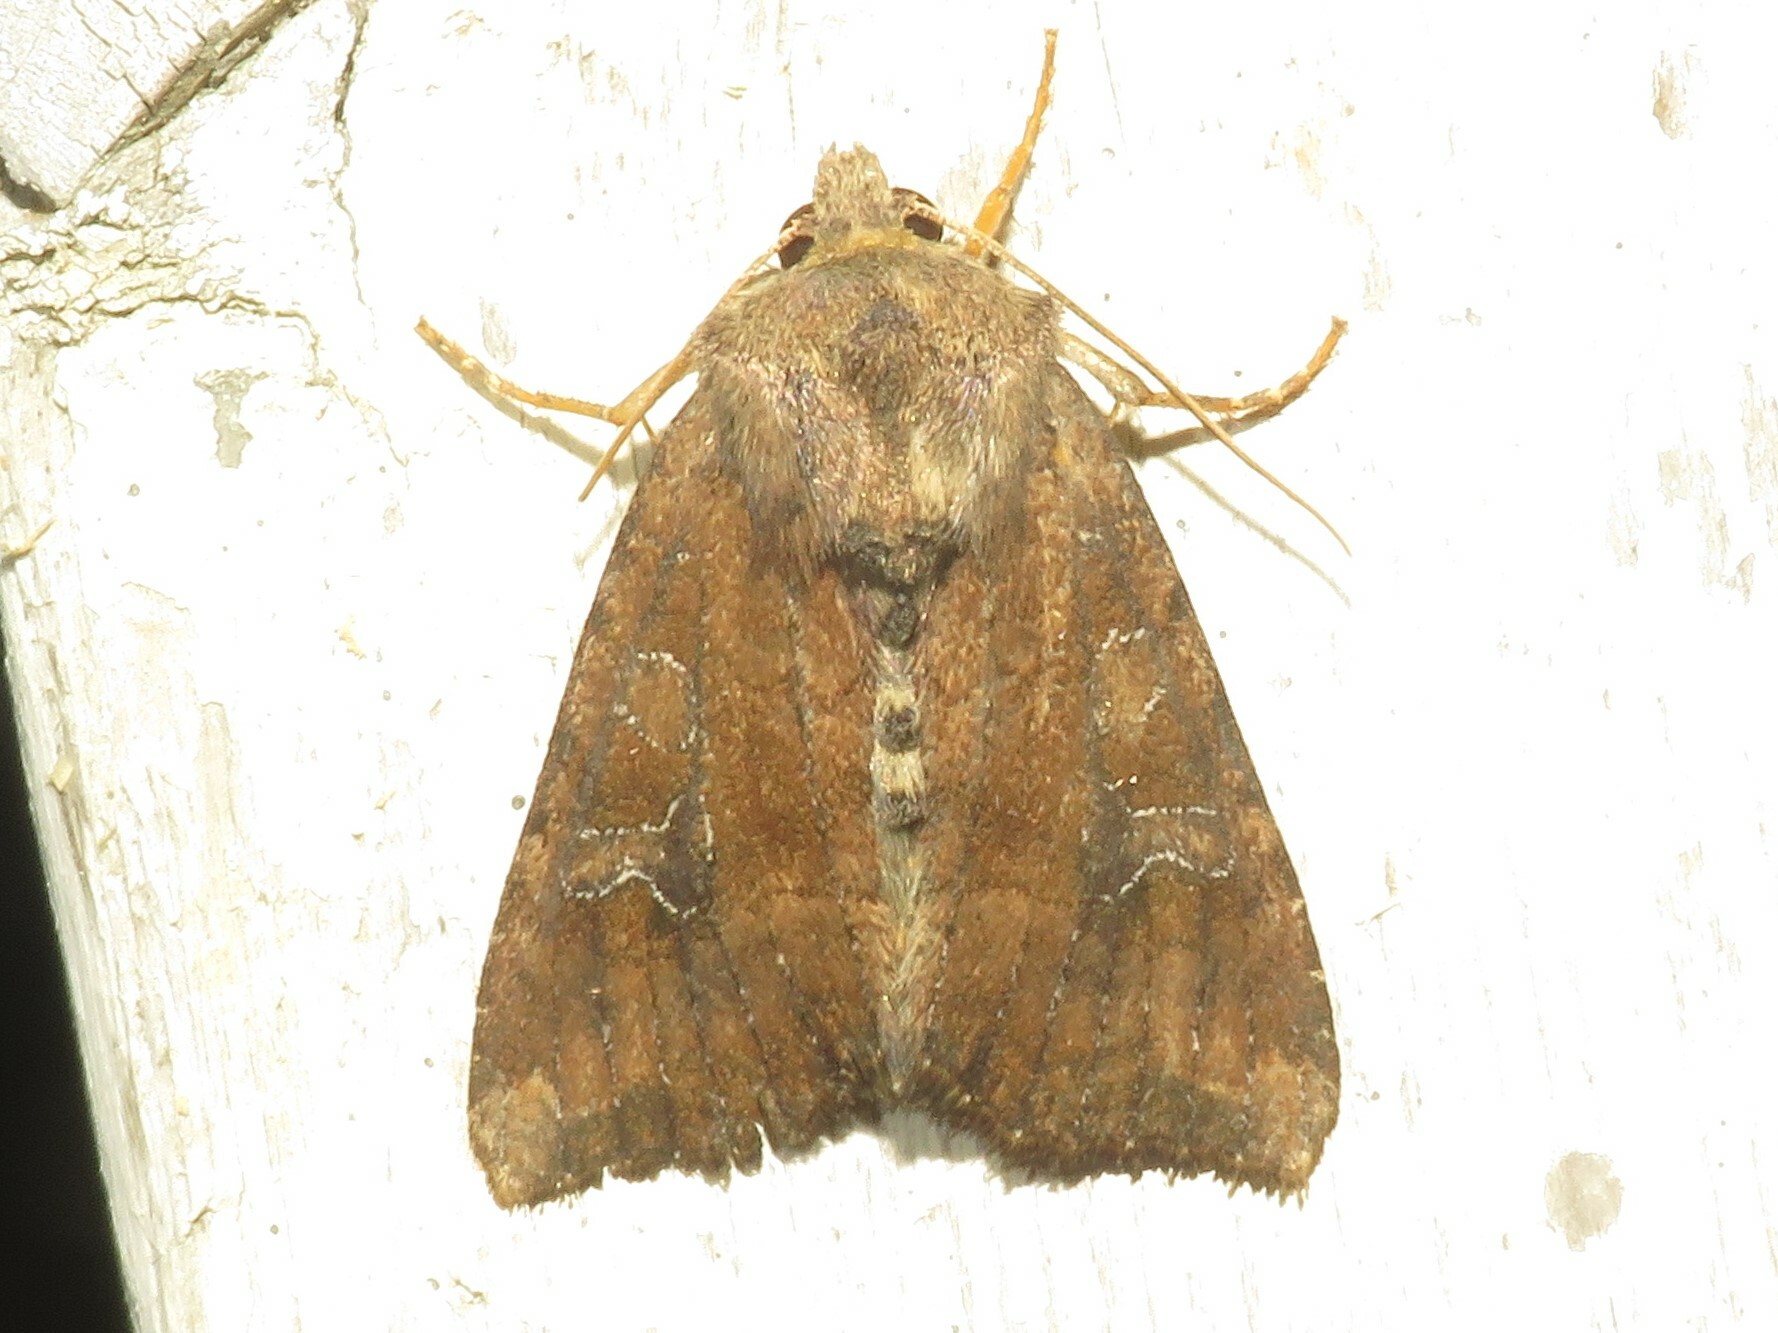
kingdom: Animalia
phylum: Arthropoda
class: Insecta
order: Lepidoptera
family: Noctuidae
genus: Loscopia
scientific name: Loscopia velata
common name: Veiled ear moth
